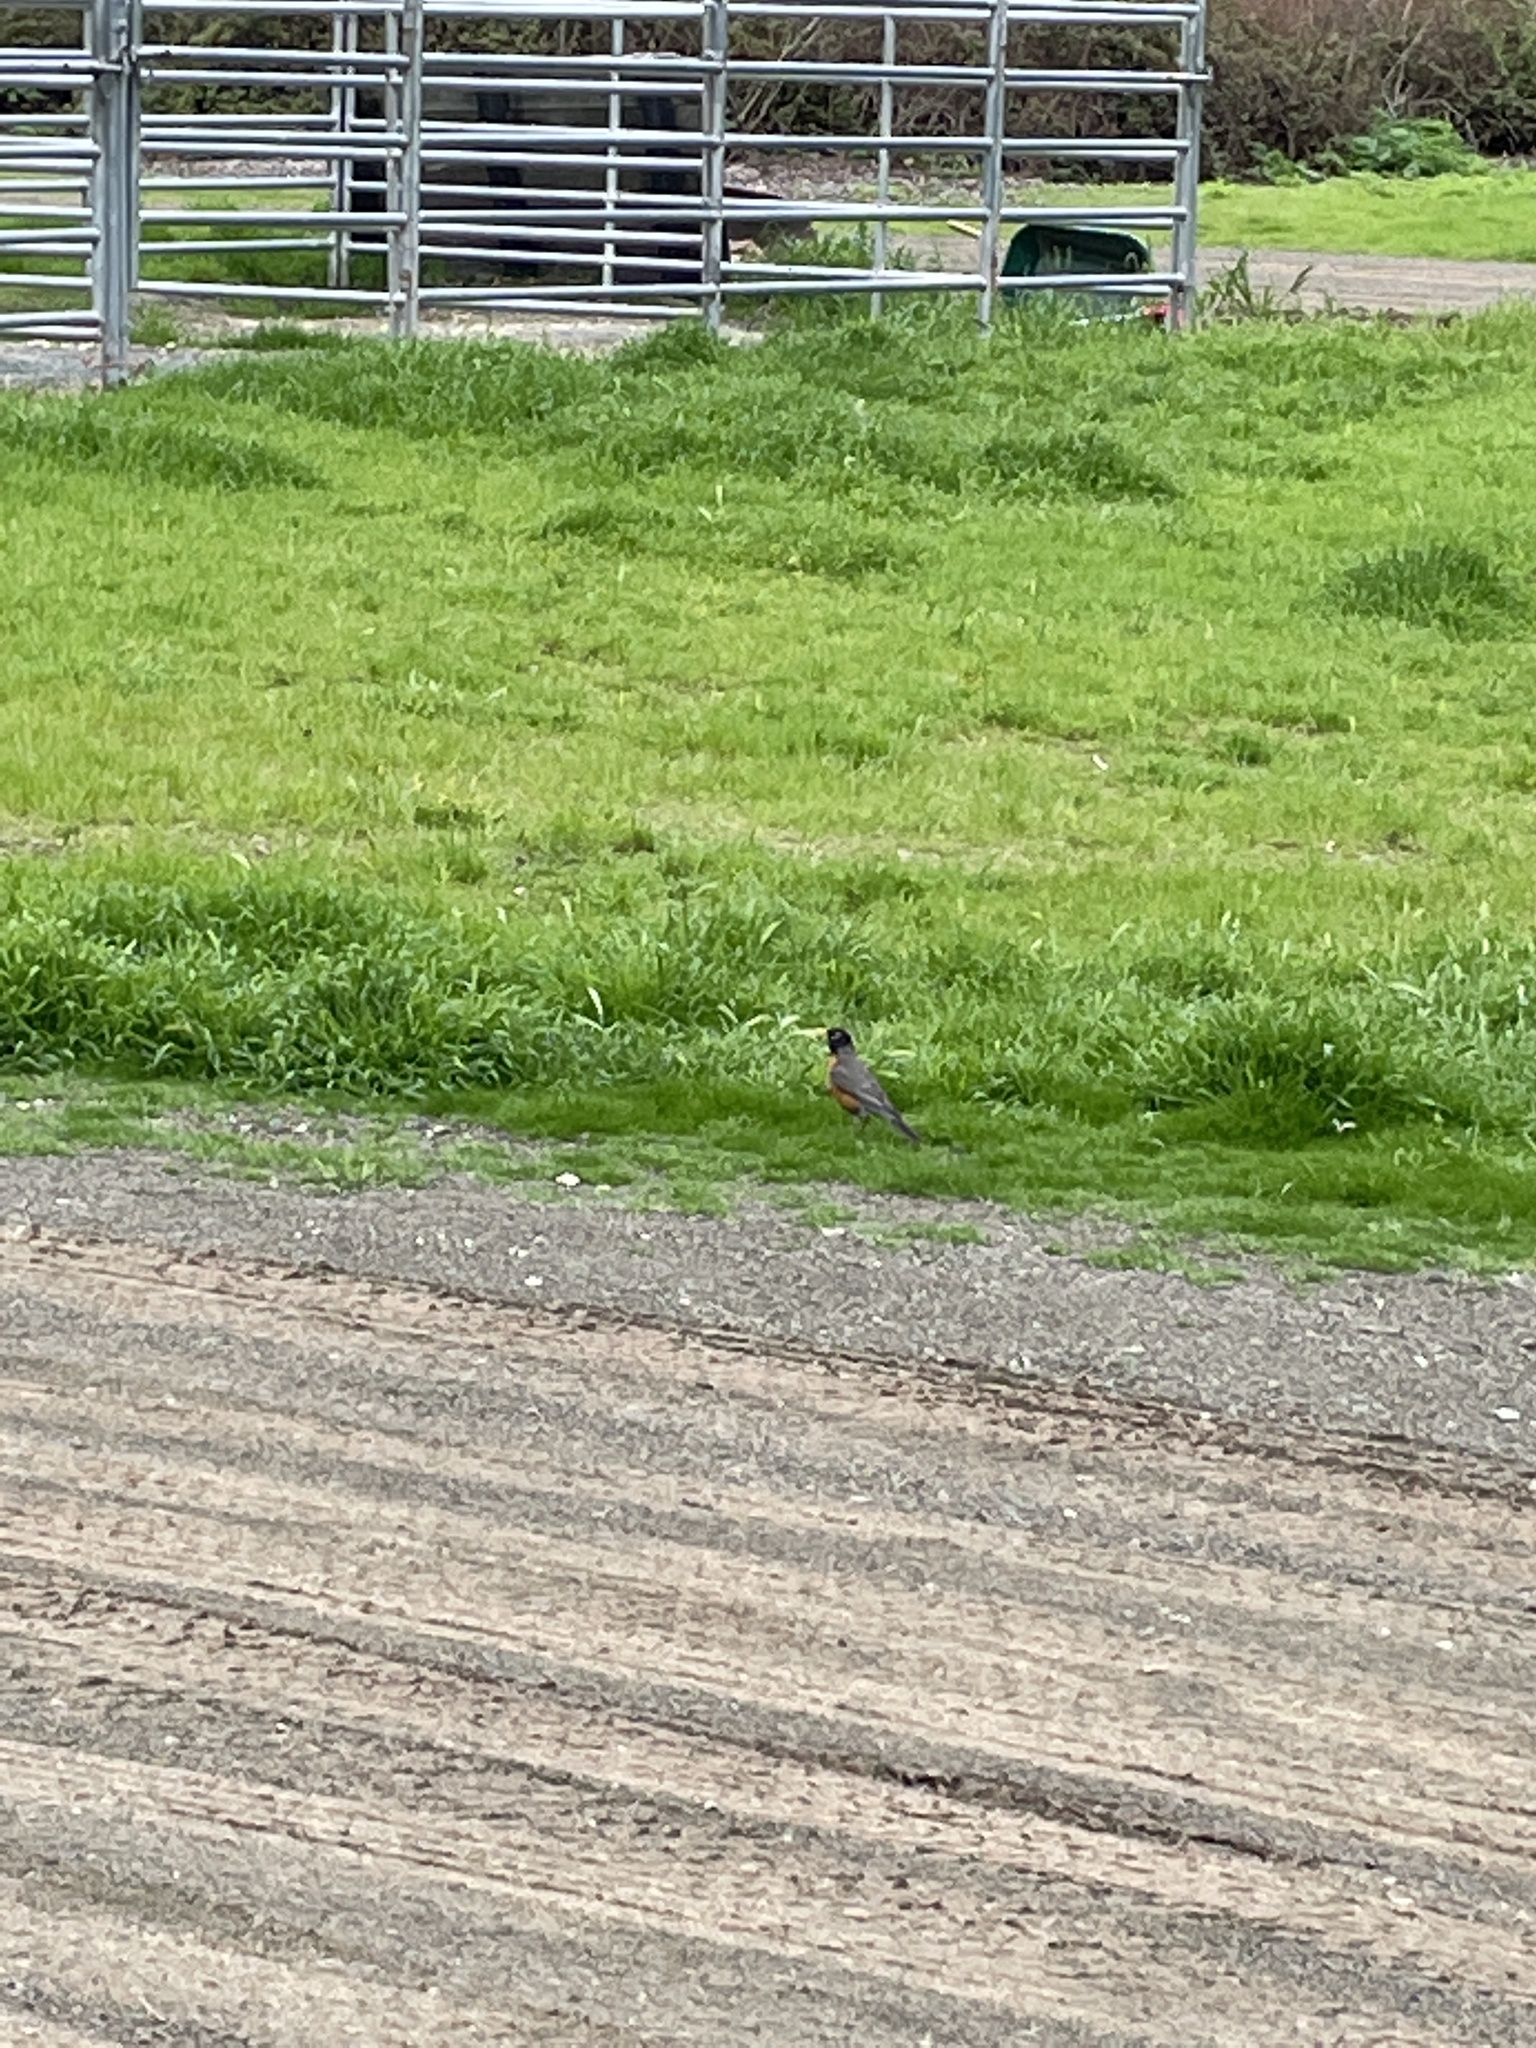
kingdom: Animalia
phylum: Chordata
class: Aves
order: Passeriformes
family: Turdidae
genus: Turdus
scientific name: Turdus migratorius
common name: American robin
